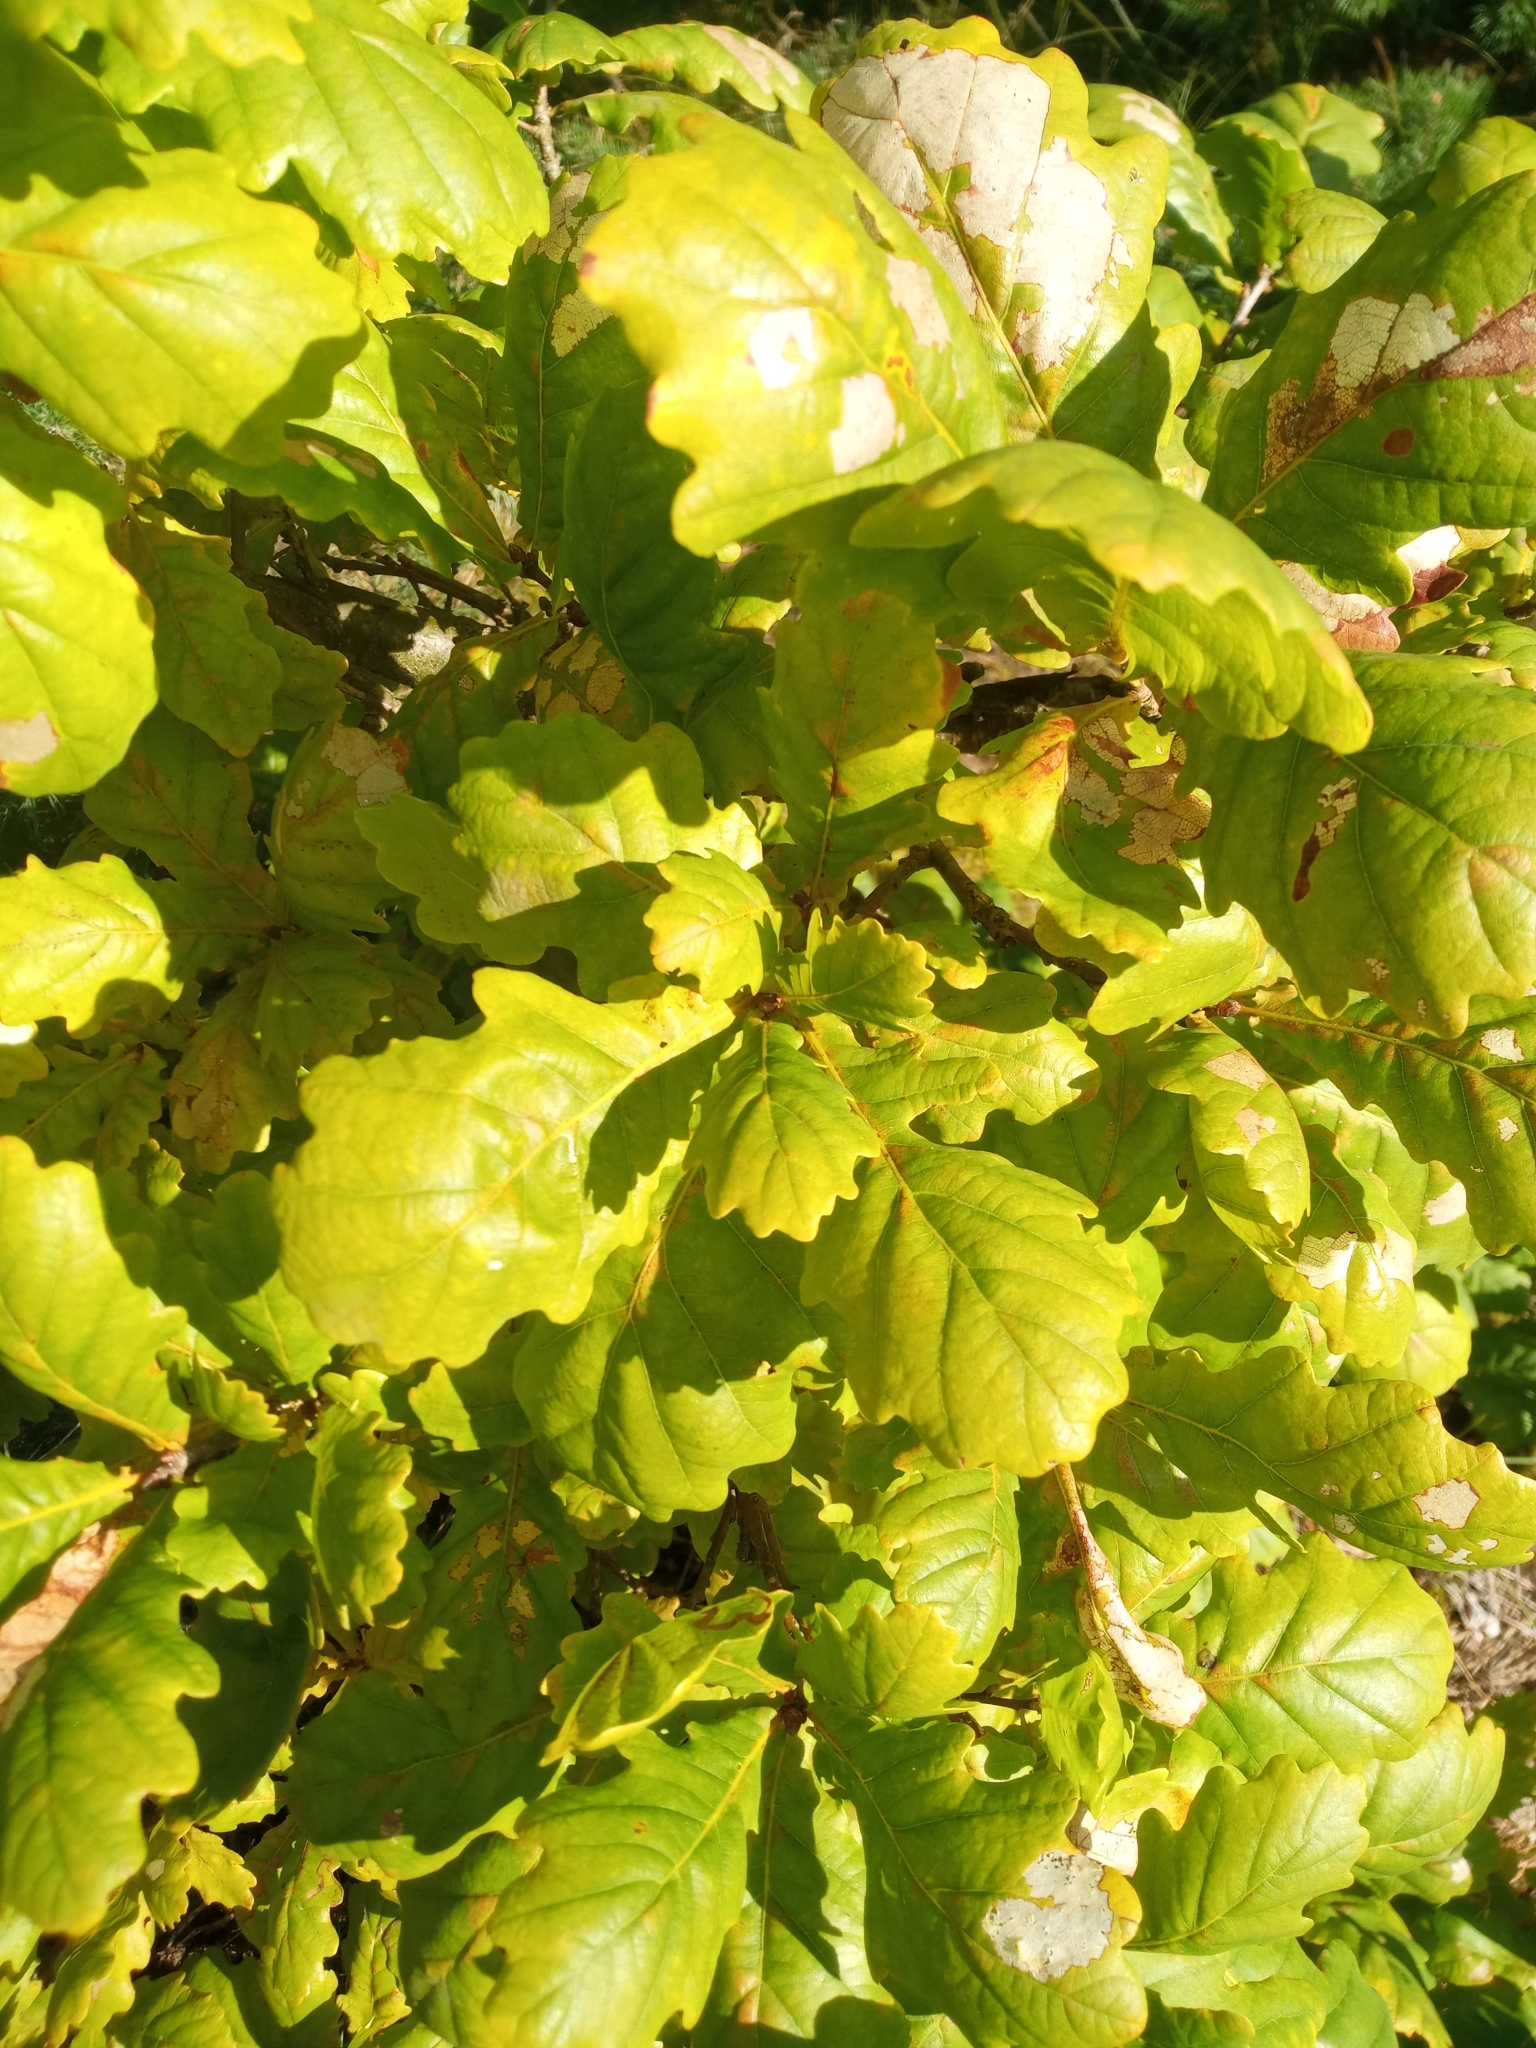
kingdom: Plantae
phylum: Tracheophyta
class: Magnoliopsida
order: Fagales
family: Fagaceae
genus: Quercus
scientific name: Quercus robur
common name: Pedunculate oak
